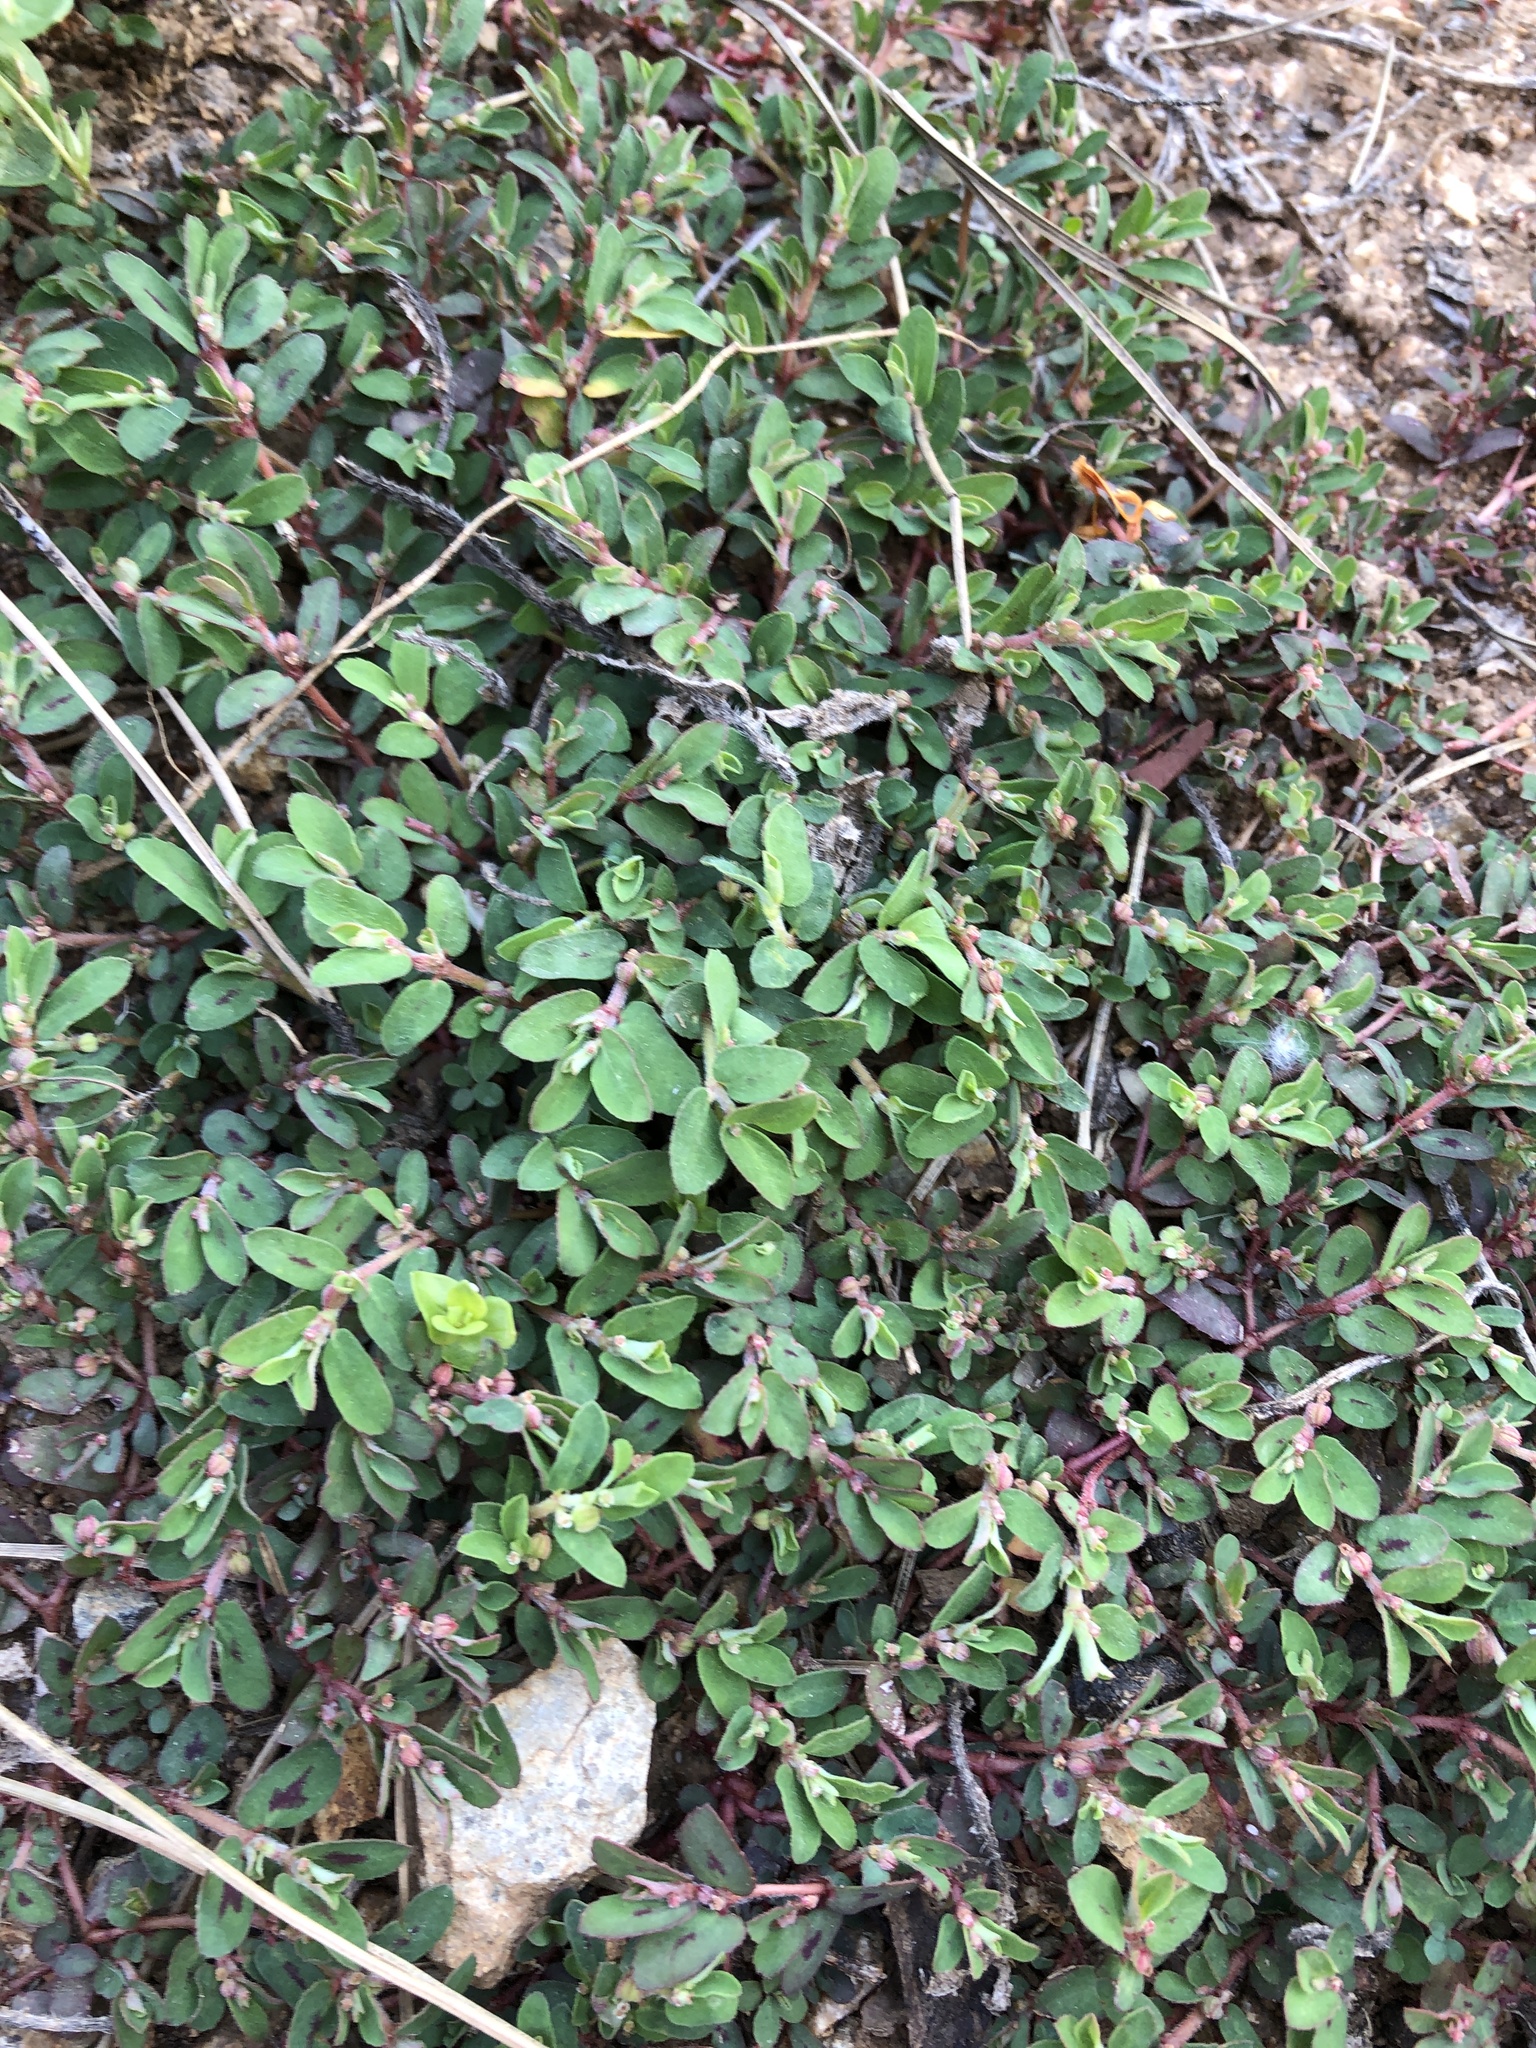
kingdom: Plantae
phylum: Tracheophyta
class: Magnoliopsida
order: Malpighiales
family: Euphorbiaceae
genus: Euphorbia
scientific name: Euphorbia maculata
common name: Spotted spurge
